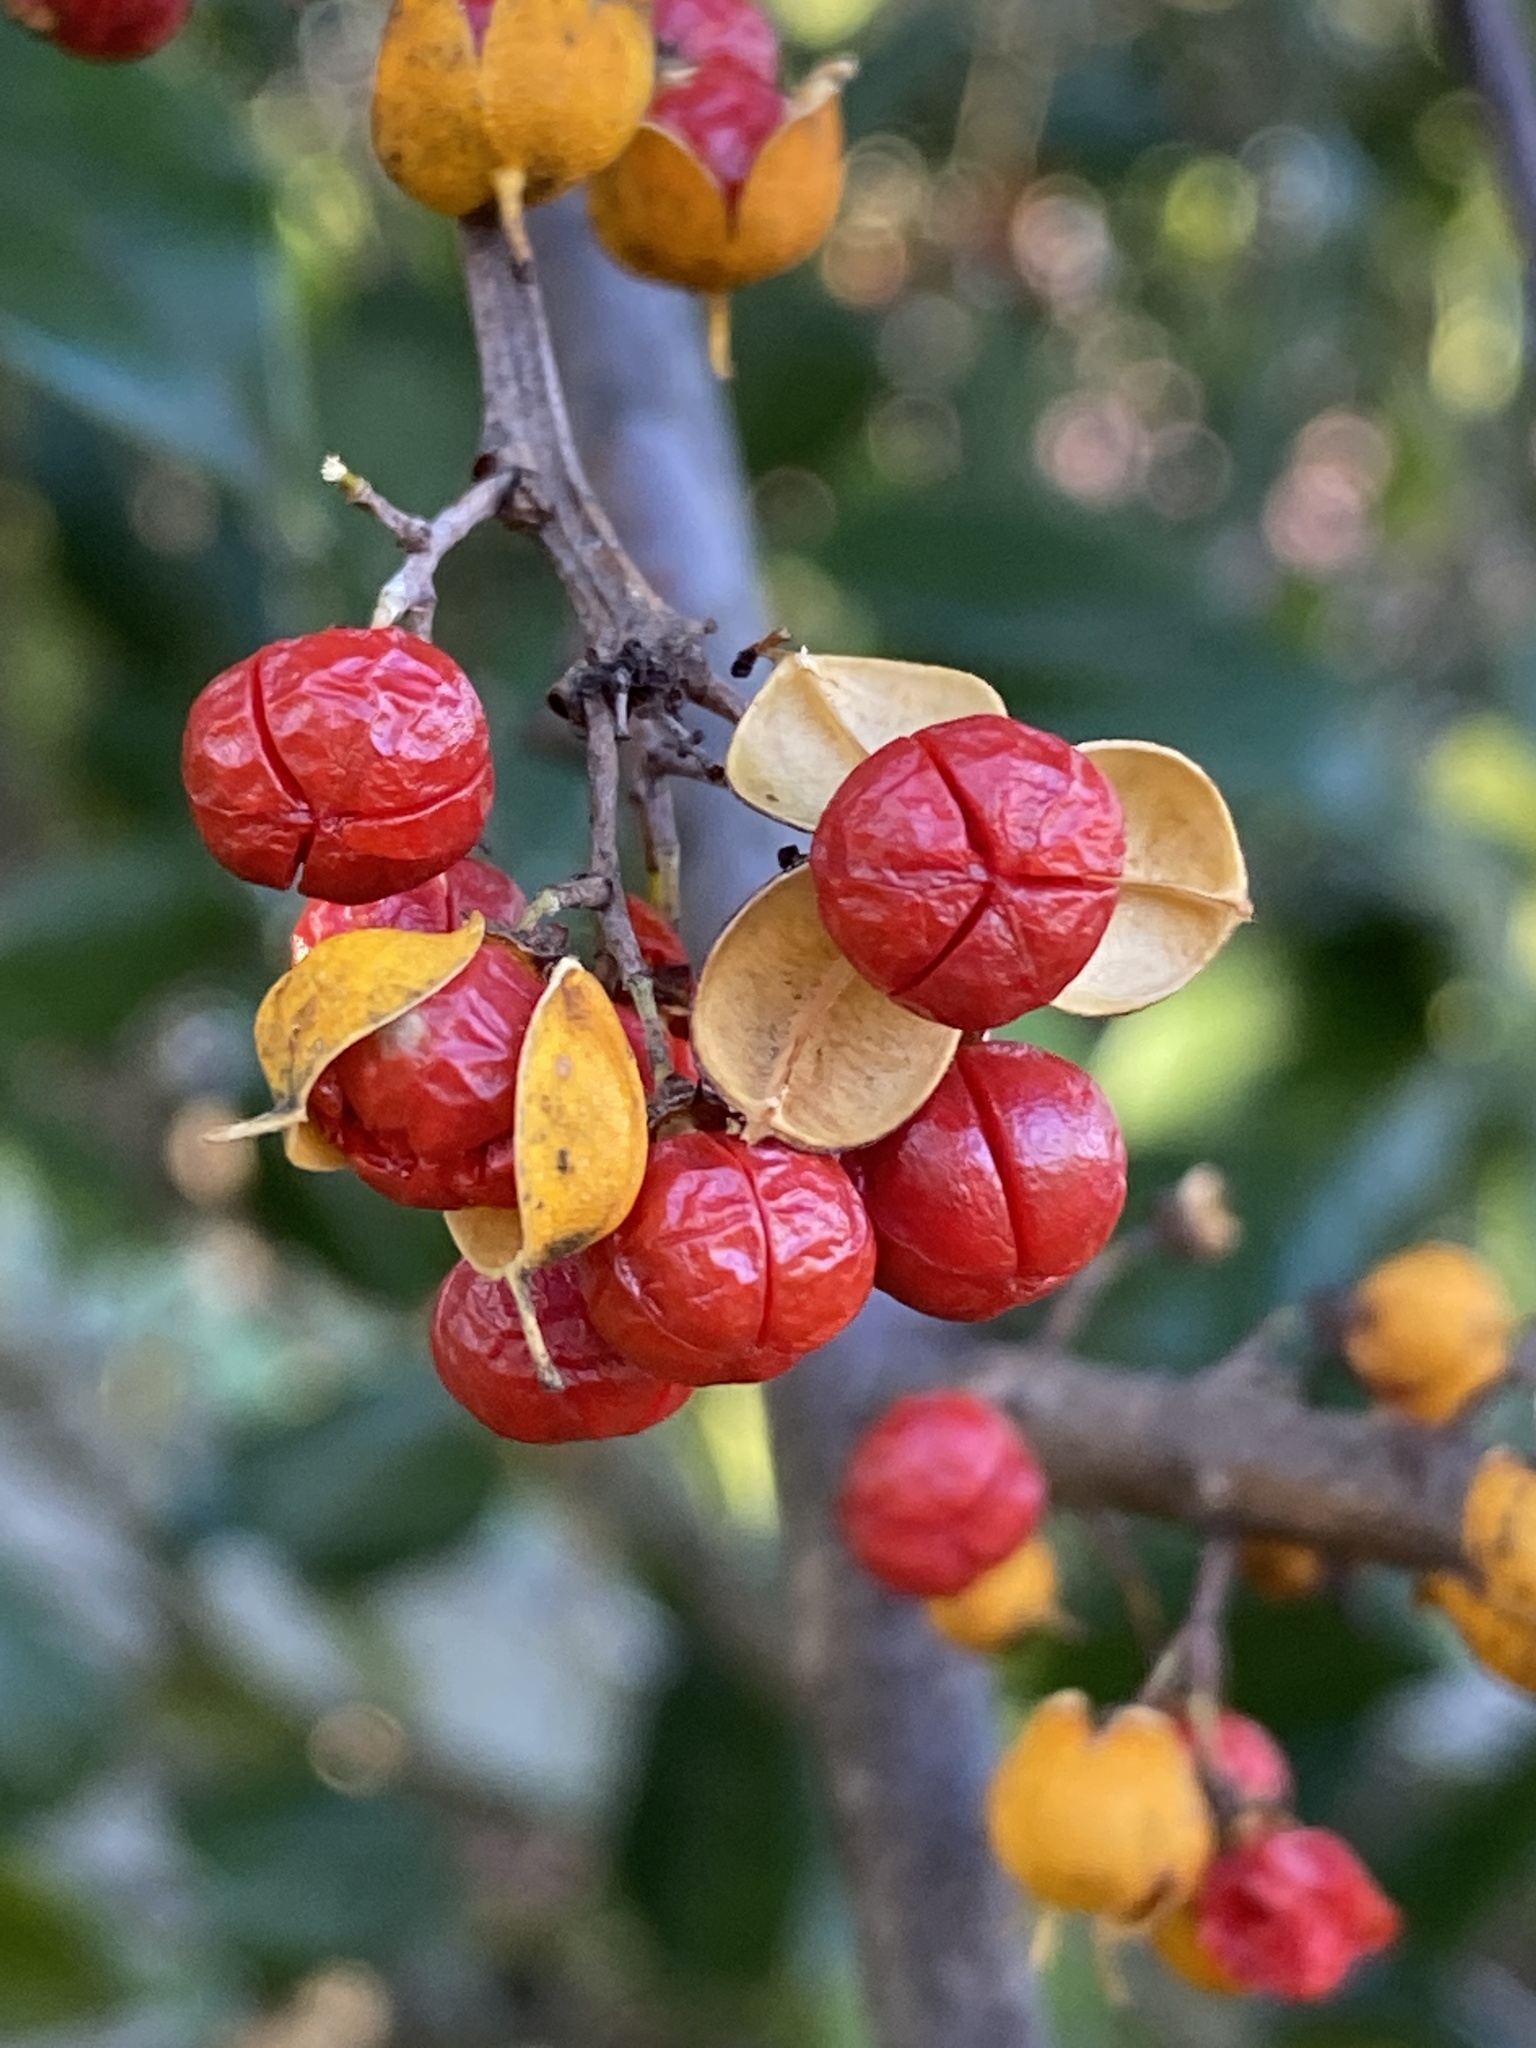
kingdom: Plantae
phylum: Tracheophyta
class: Magnoliopsida
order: Celastrales
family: Celastraceae
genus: Celastrus
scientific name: Celastrus orbiculatus
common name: Oriental bittersweet
